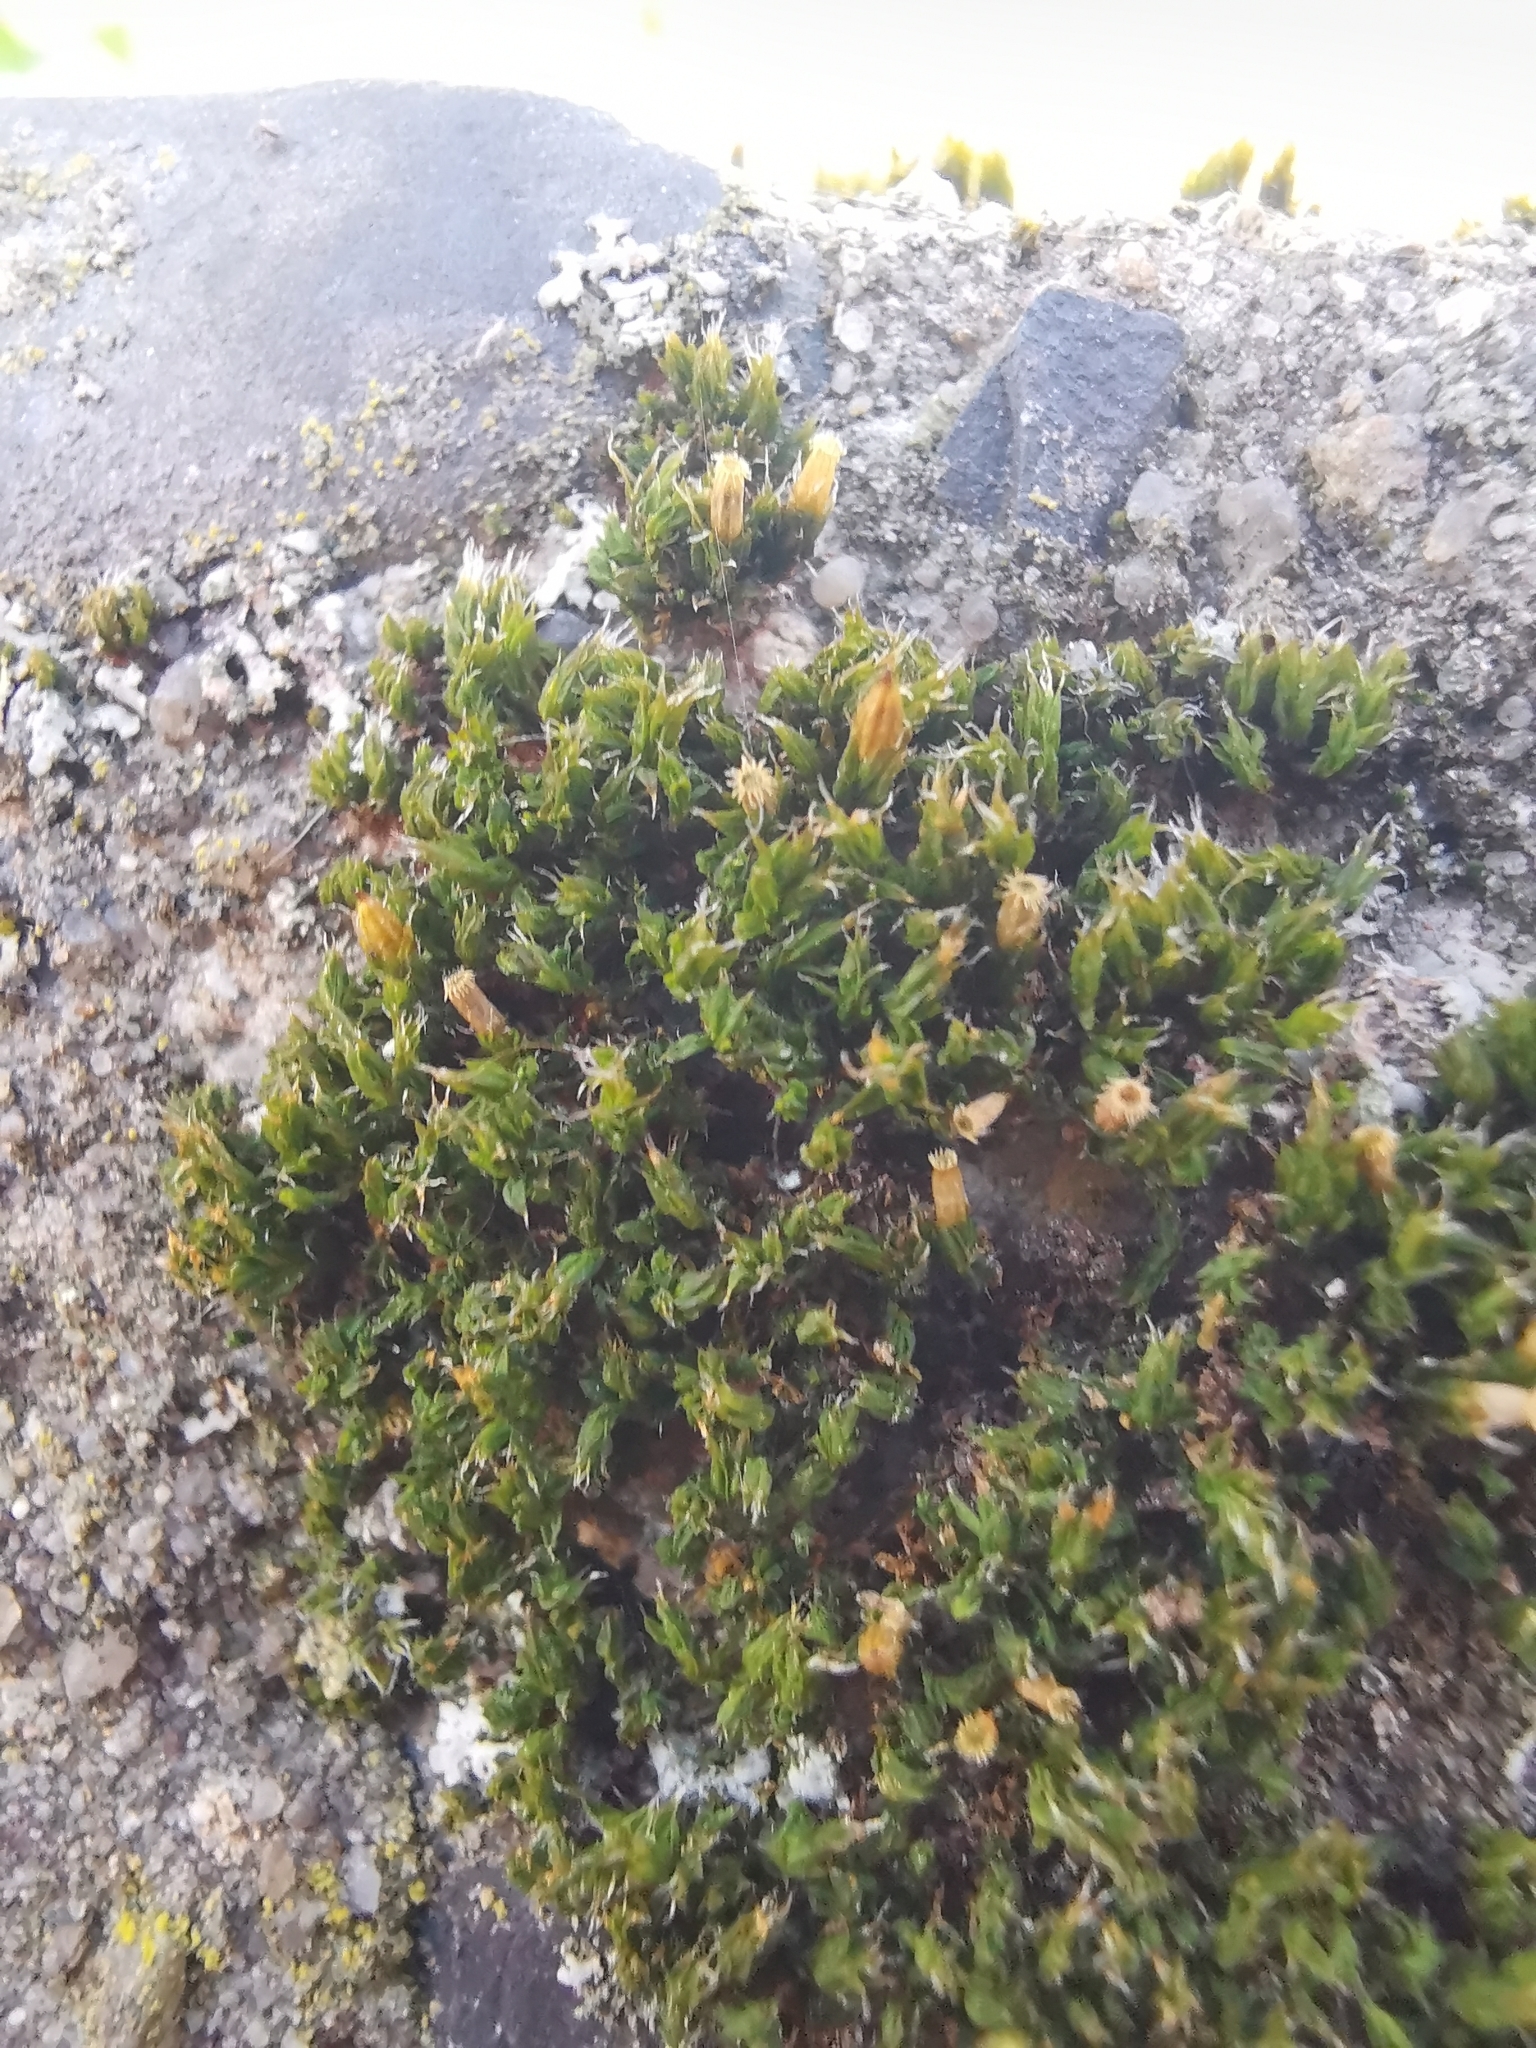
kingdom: Plantae
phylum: Bryophyta
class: Bryopsida
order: Orthotrichales
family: Orthotrichaceae
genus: Orthotrichum
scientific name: Orthotrichum diaphanum
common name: White-tipped bristle-moss
